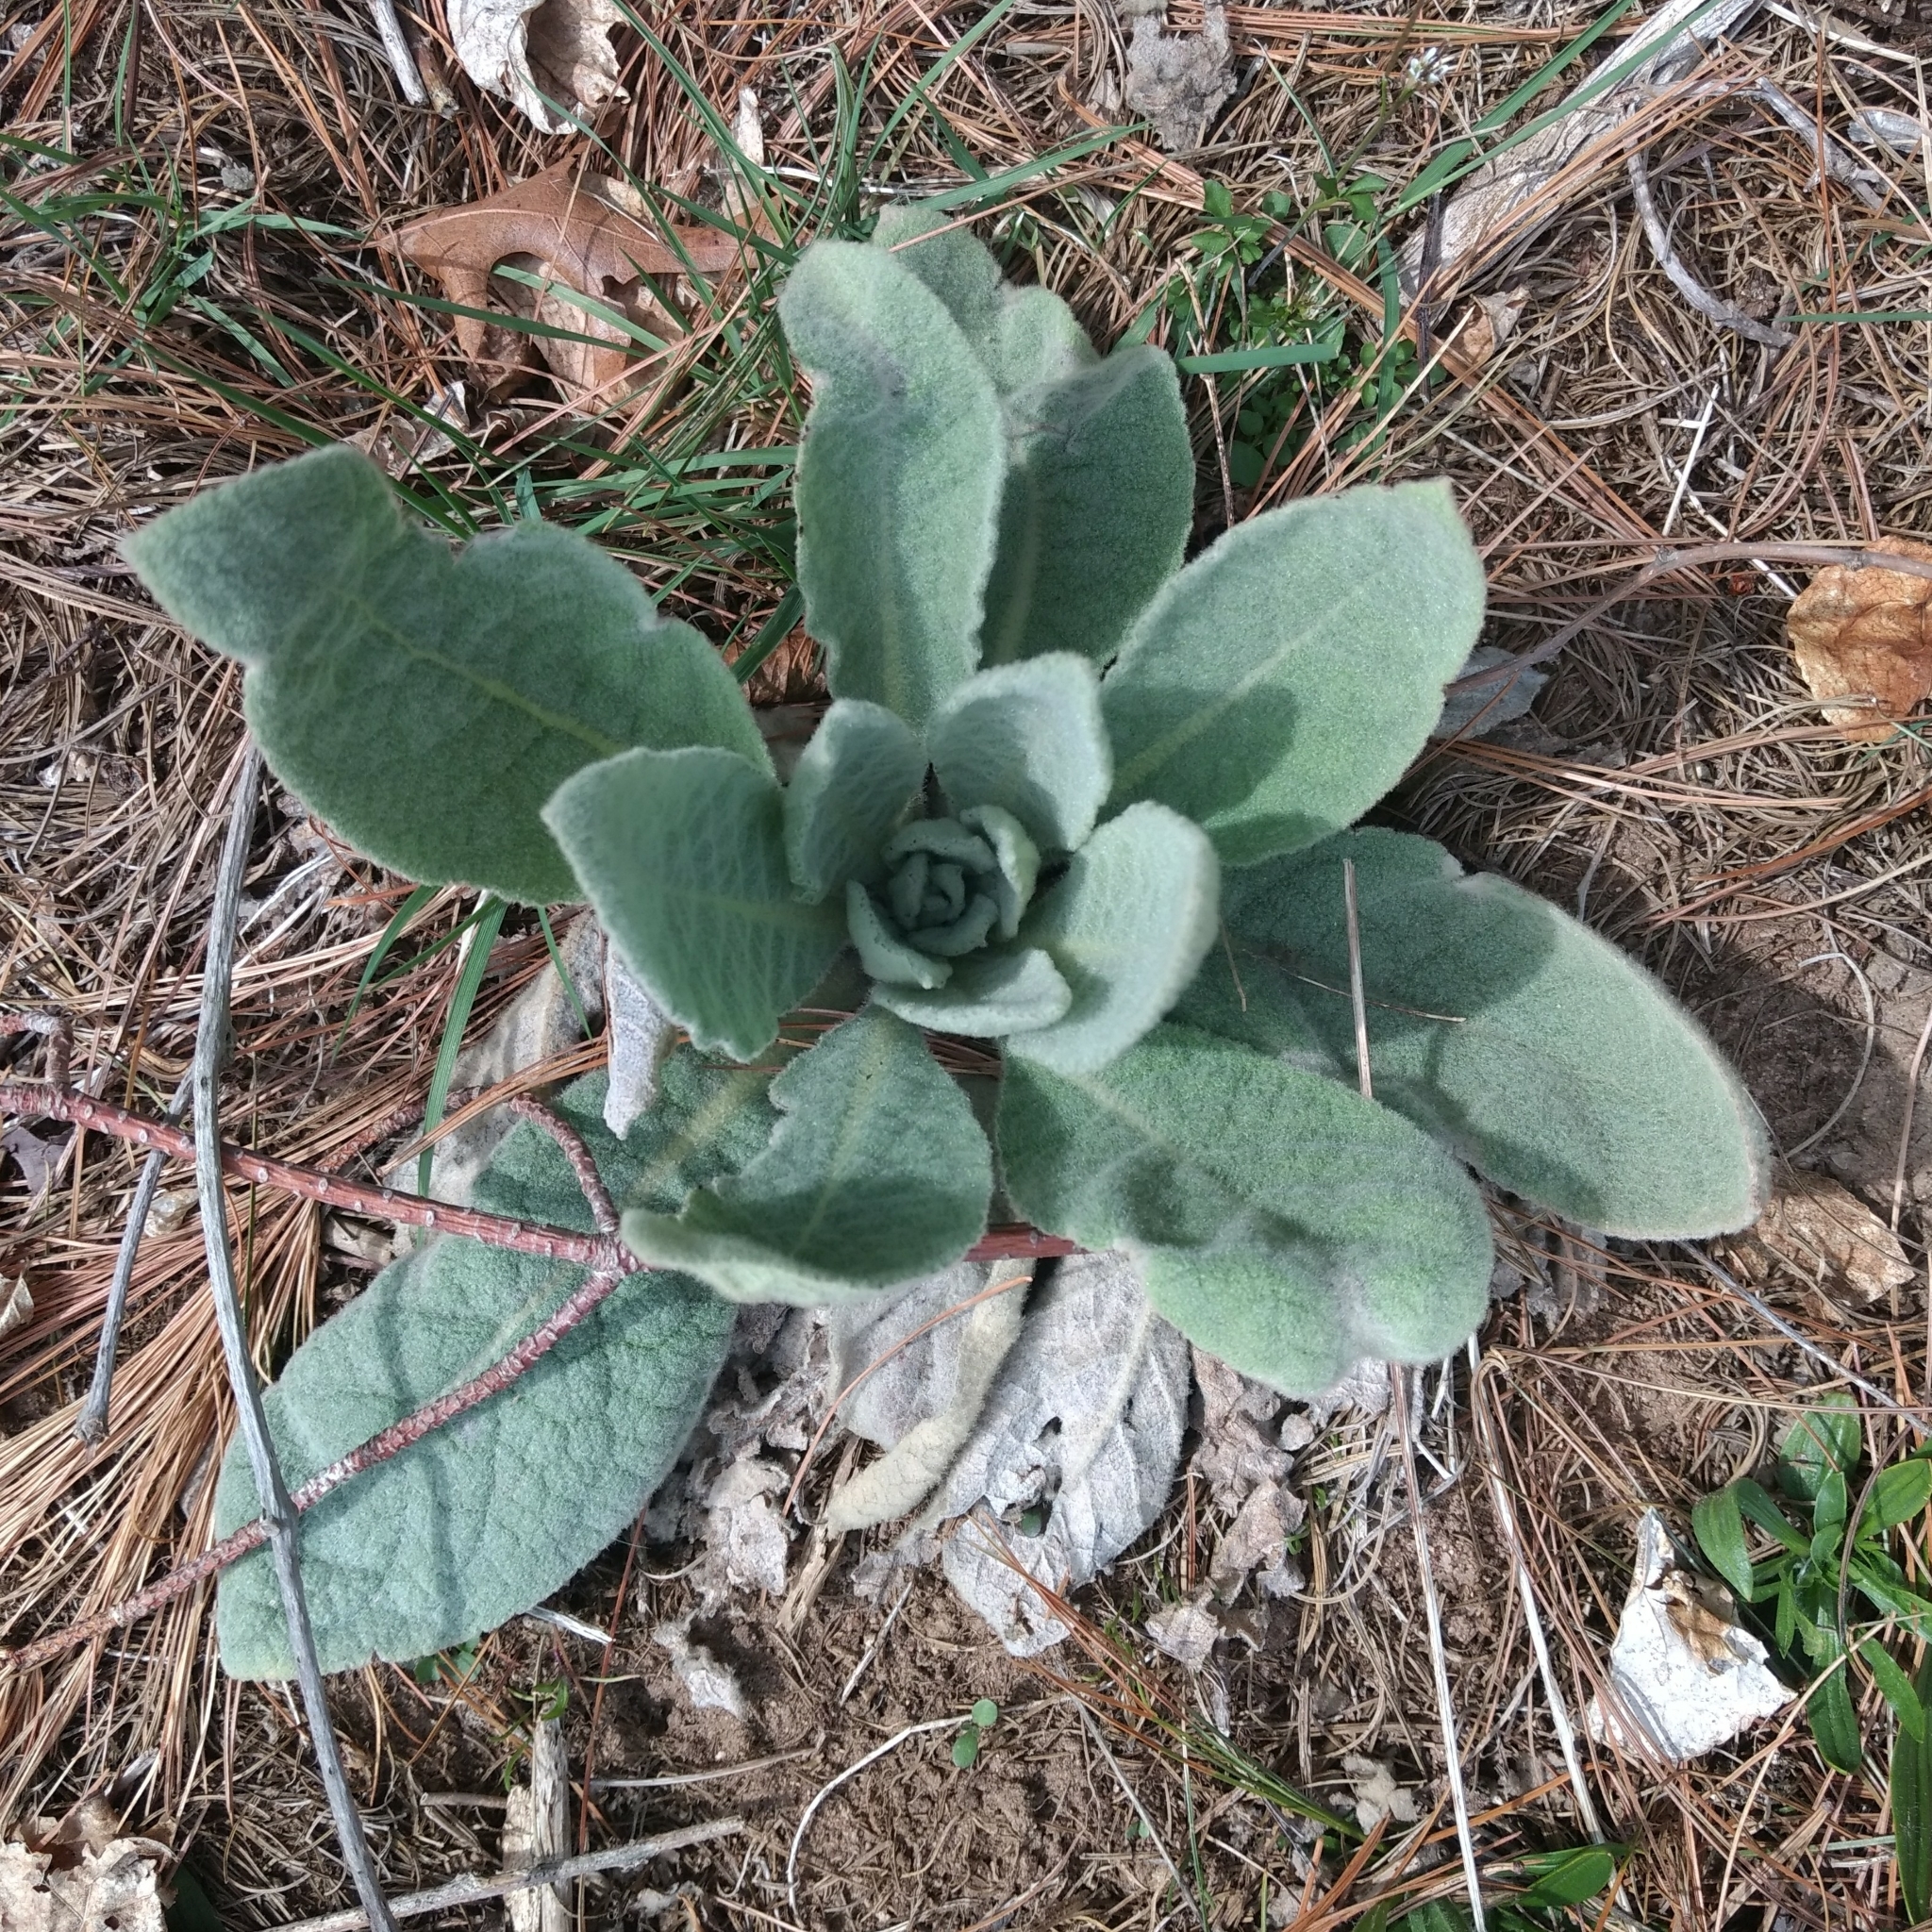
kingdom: Plantae
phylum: Tracheophyta
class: Magnoliopsida
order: Lamiales
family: Scrophulariaceae
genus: Verbascum
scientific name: Verbascum thapsus
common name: Common mullein
